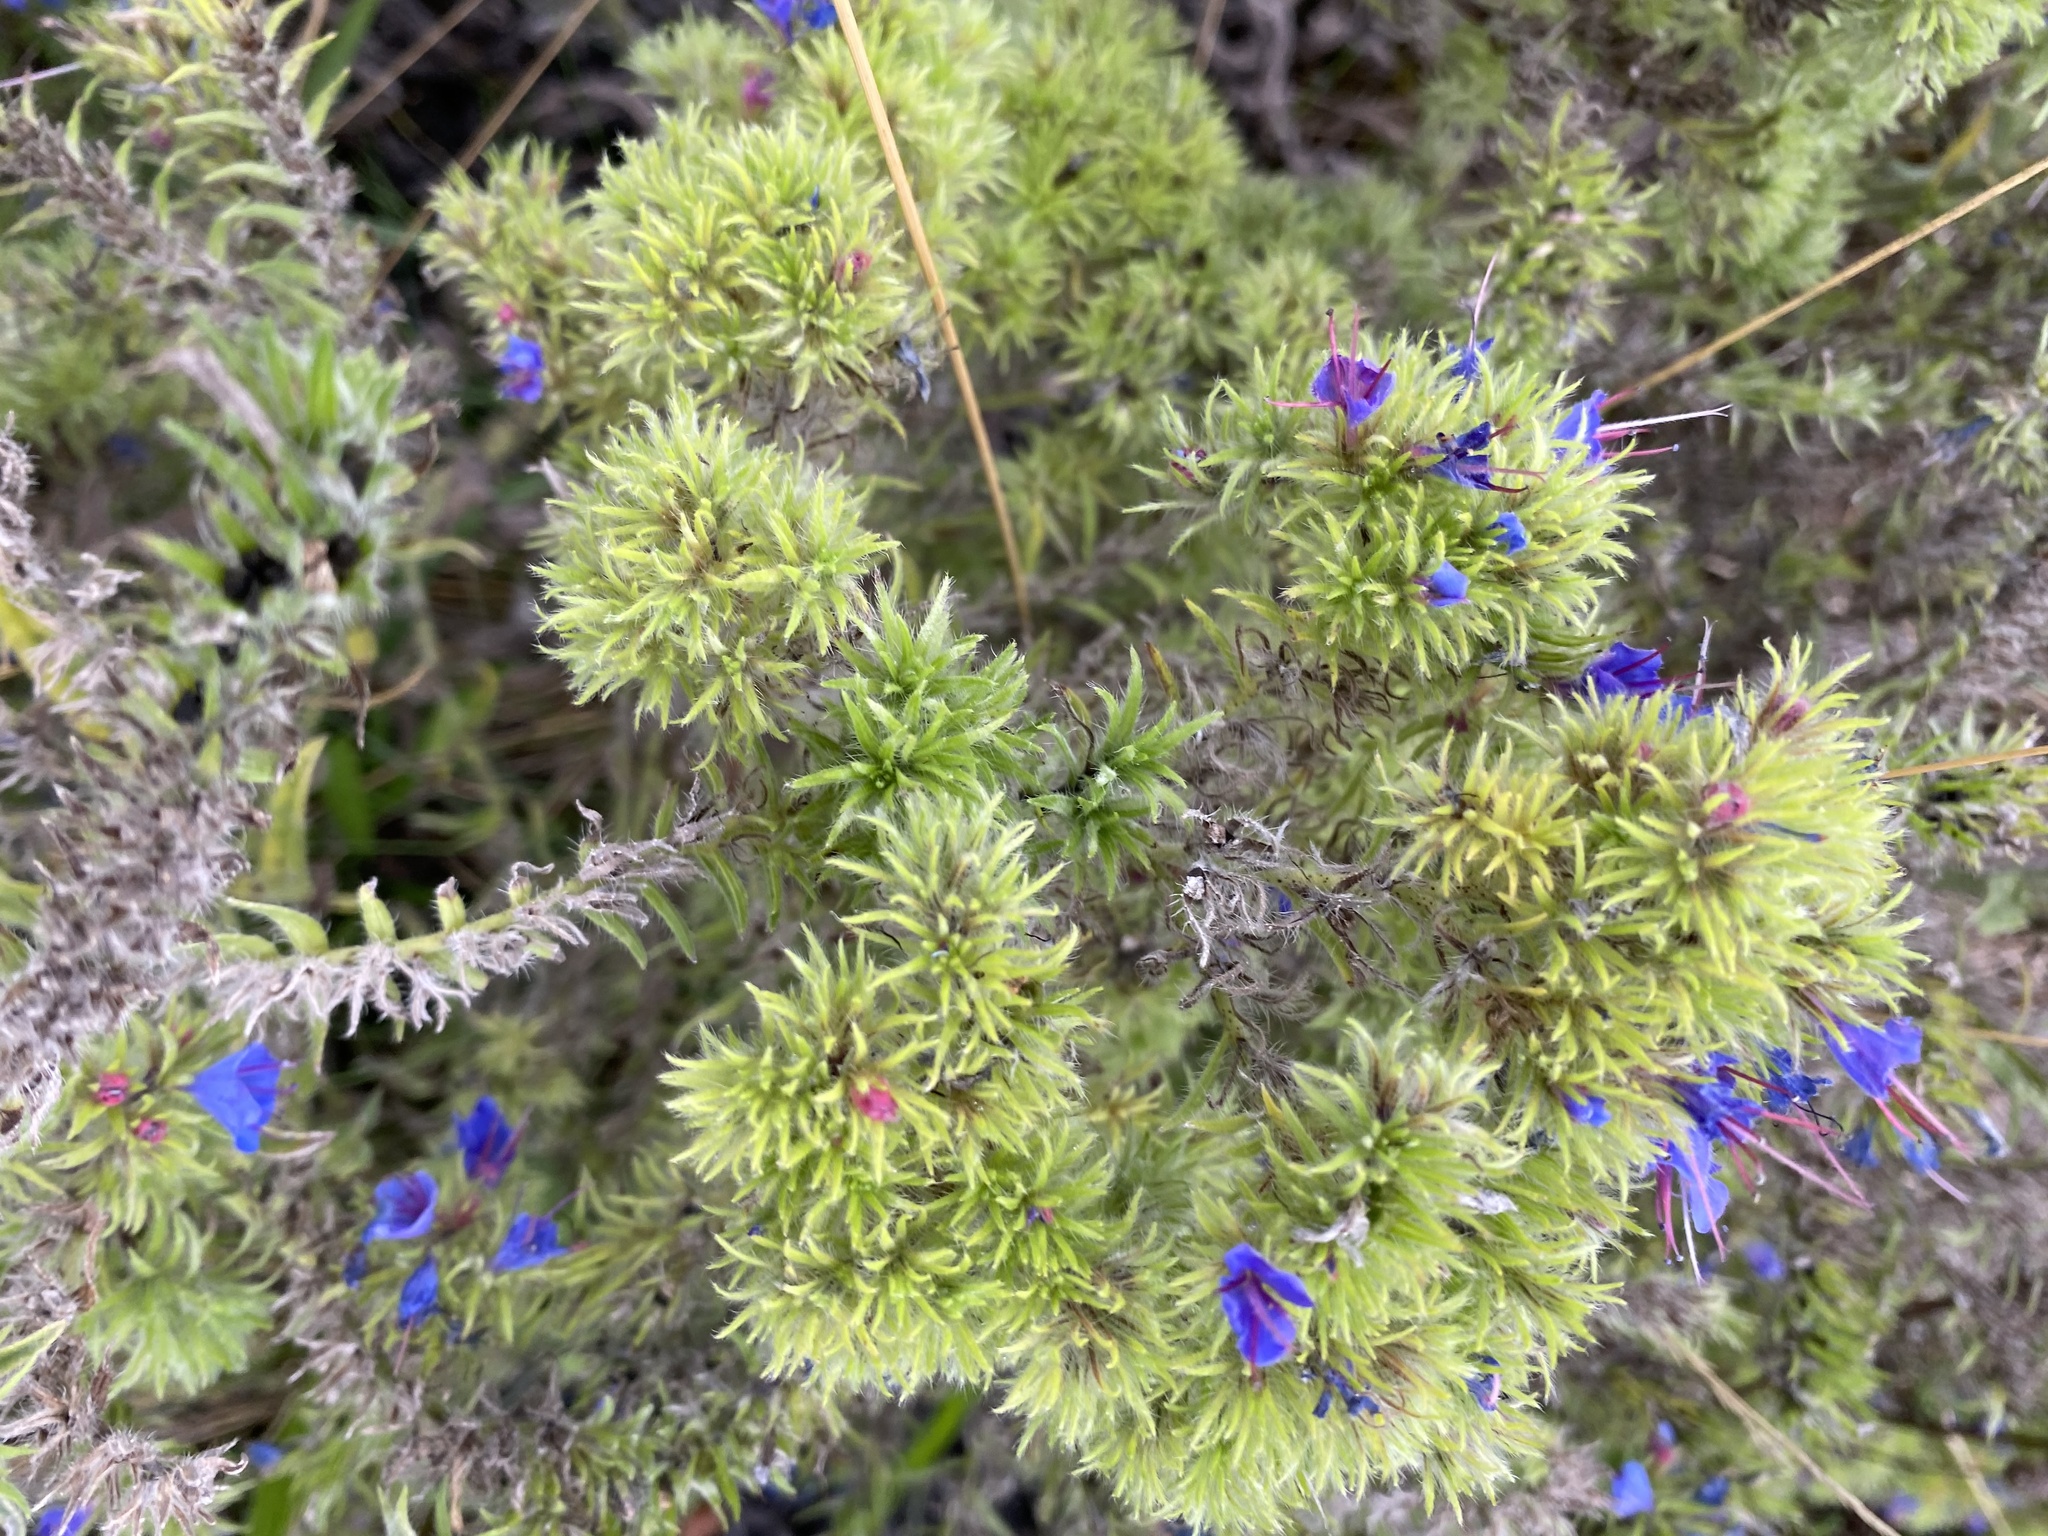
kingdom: Animalia
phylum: Arthropoda
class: Arachnida
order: Trombidiformes
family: Eriophyidae
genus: Aceria
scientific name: Aceria echii
